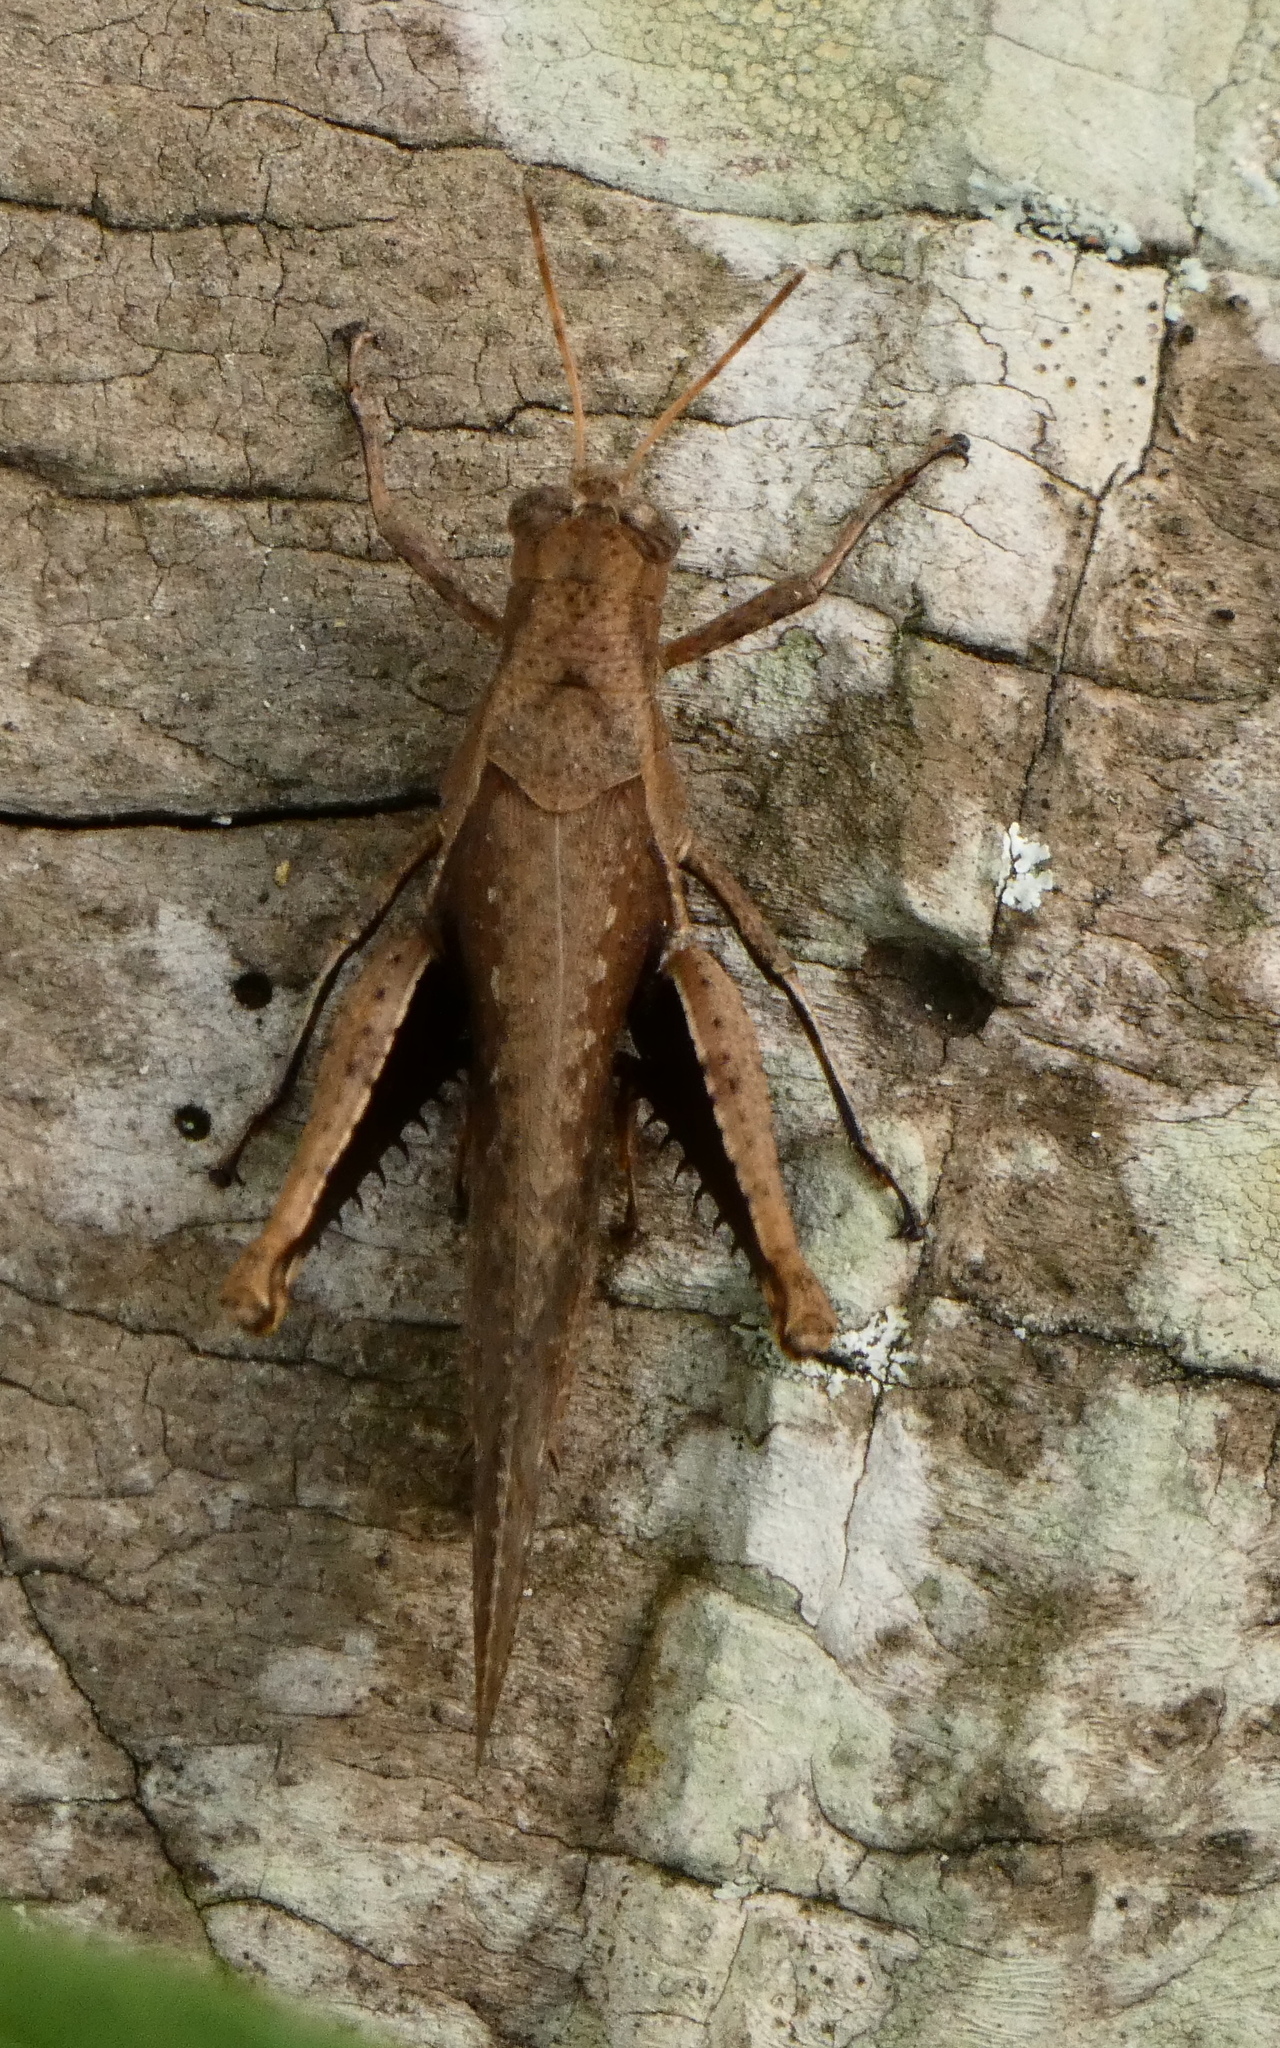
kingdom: Animalia
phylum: Arthropoda
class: Insecta
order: Orthoptera
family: Acrididae
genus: Abracris
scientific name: Abracris flavolineata
